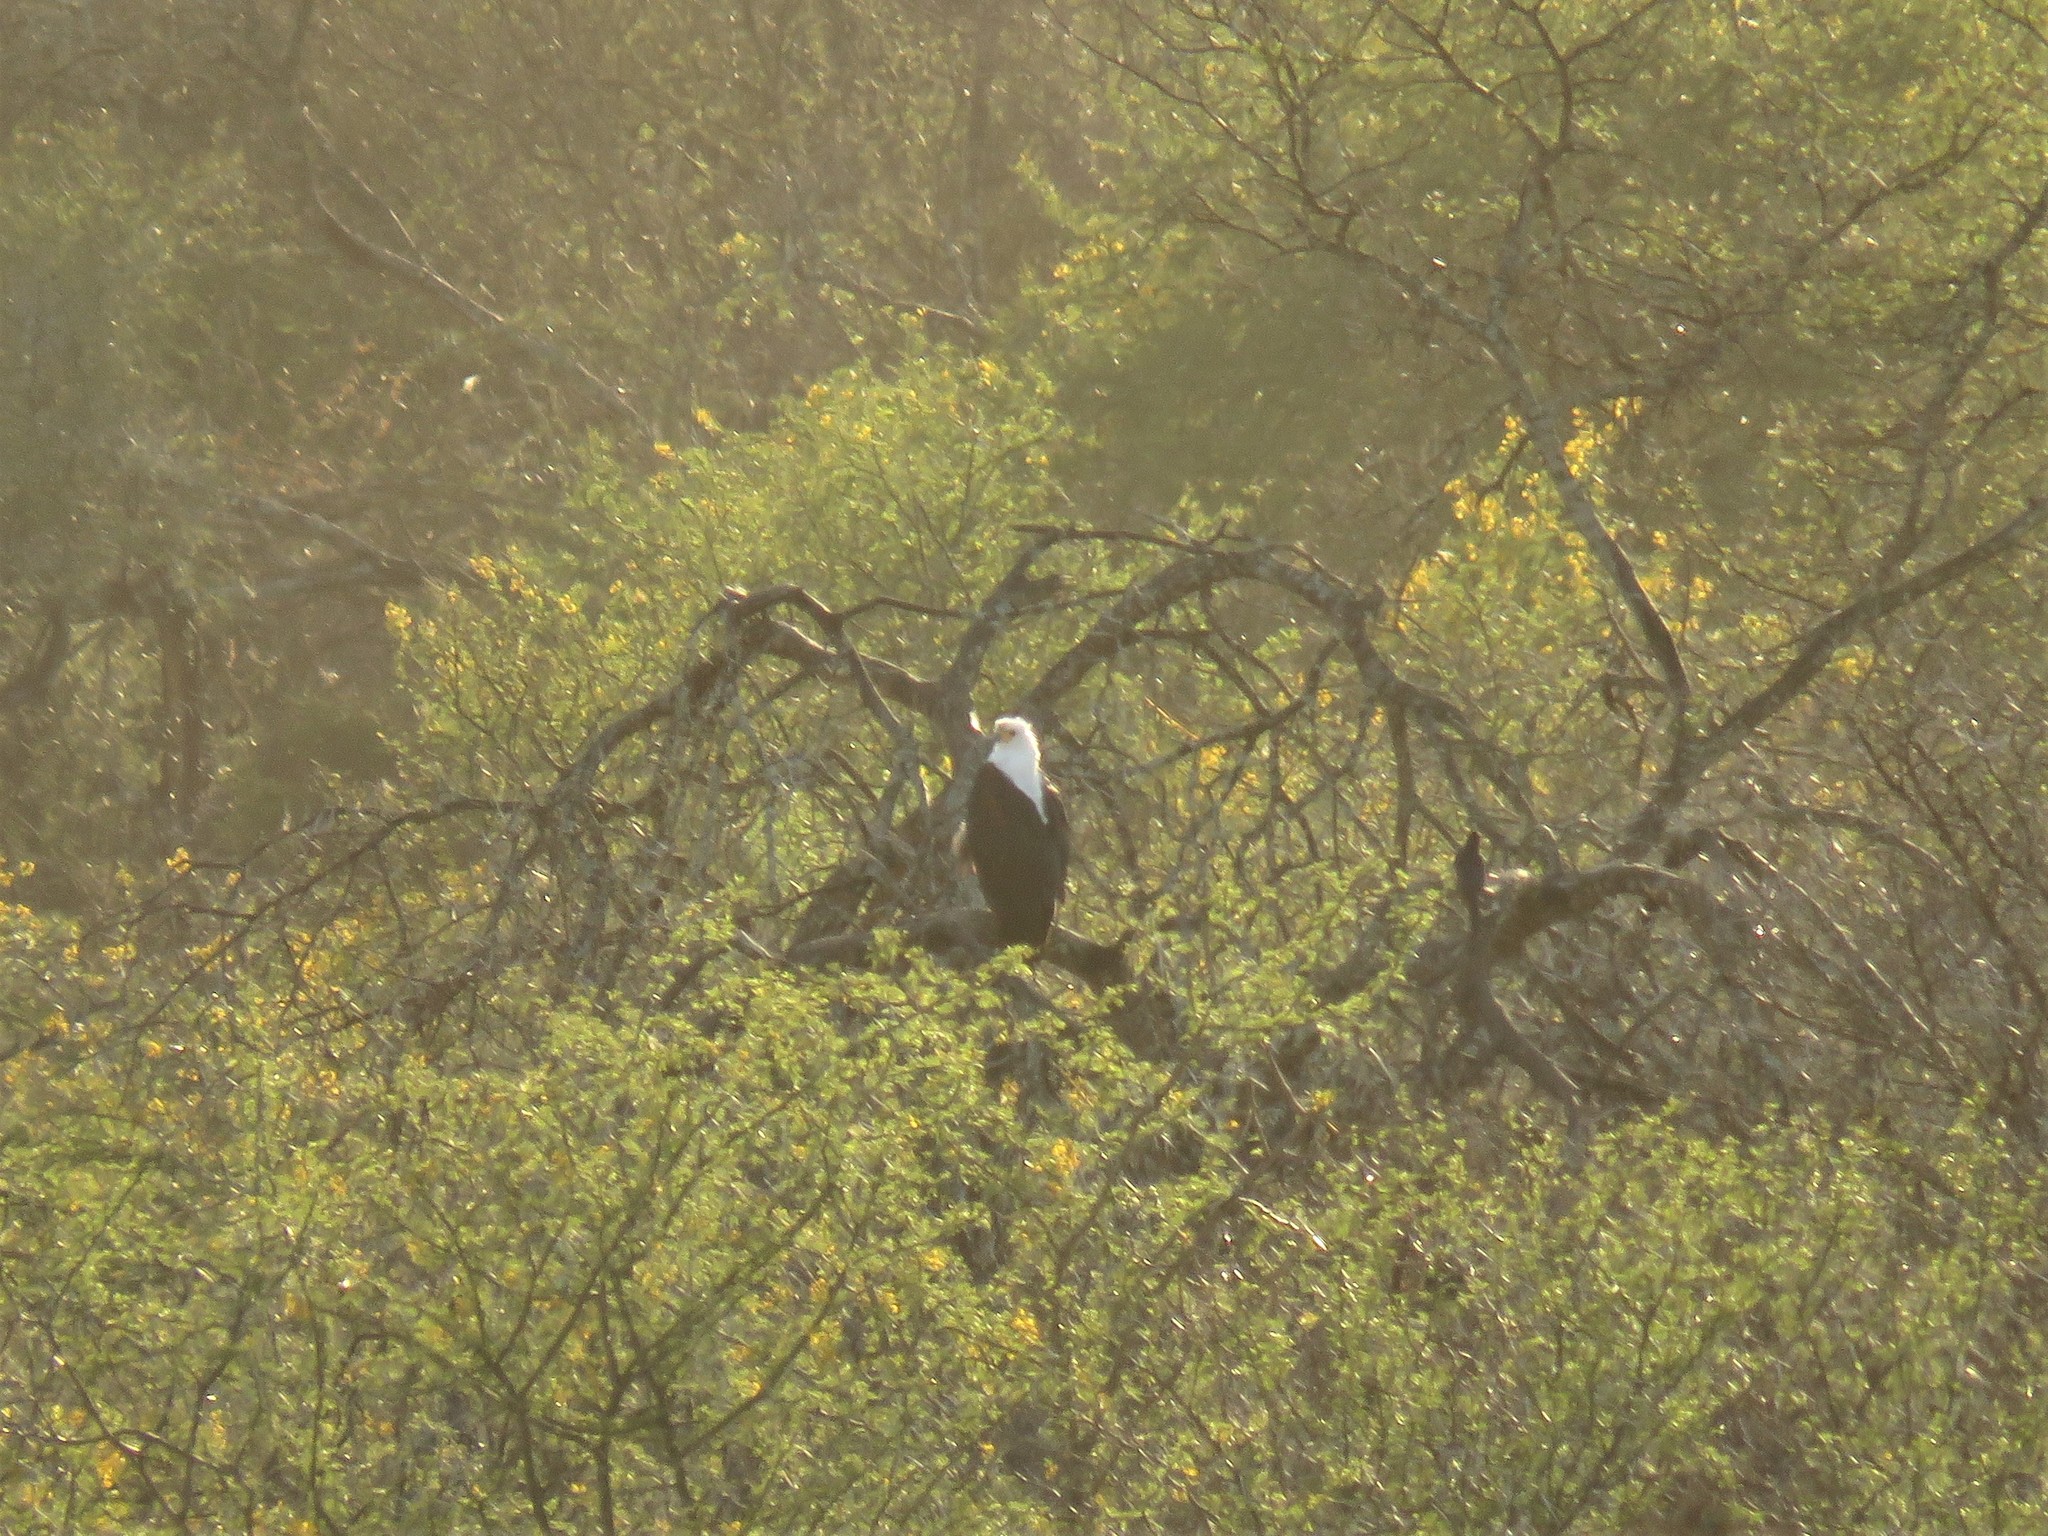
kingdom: Animalia
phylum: Chordata
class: Aves
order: Accipitriformes
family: Accipitridae
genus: Haliaeetus
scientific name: Haliaeetus vocifer
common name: African fish eagle
